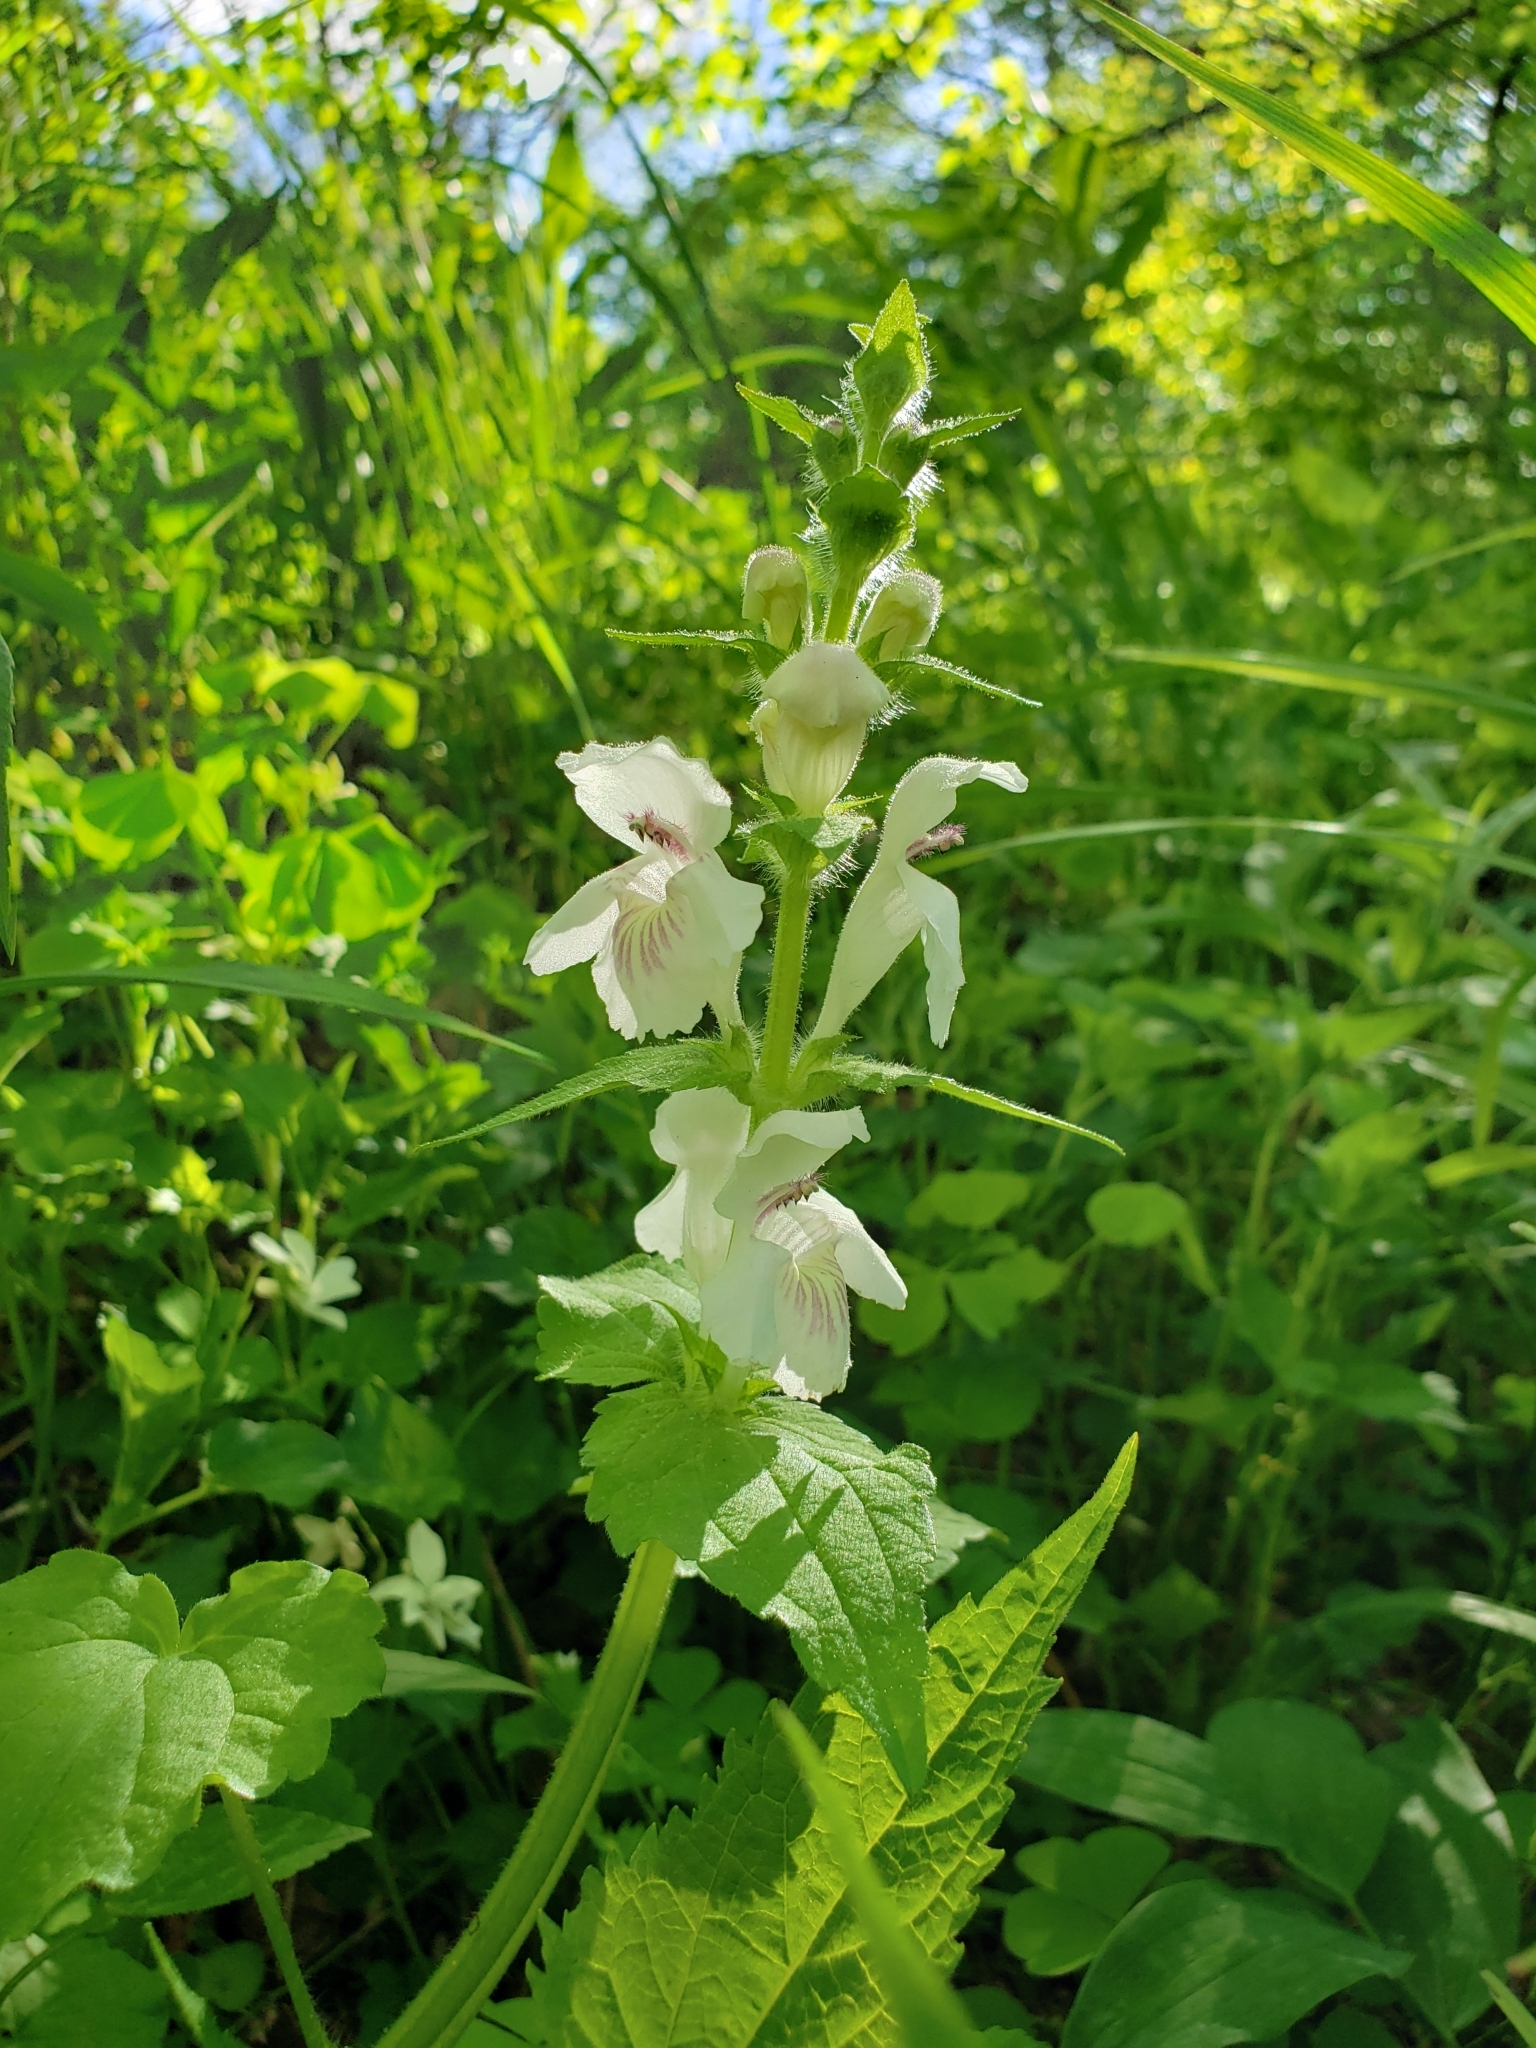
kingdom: Plantae
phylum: Tracheophyta
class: Magnoliopsida
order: Lamiales
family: Lamiaceae
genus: Synandra
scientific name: Synandra hispidula
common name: Synandra
